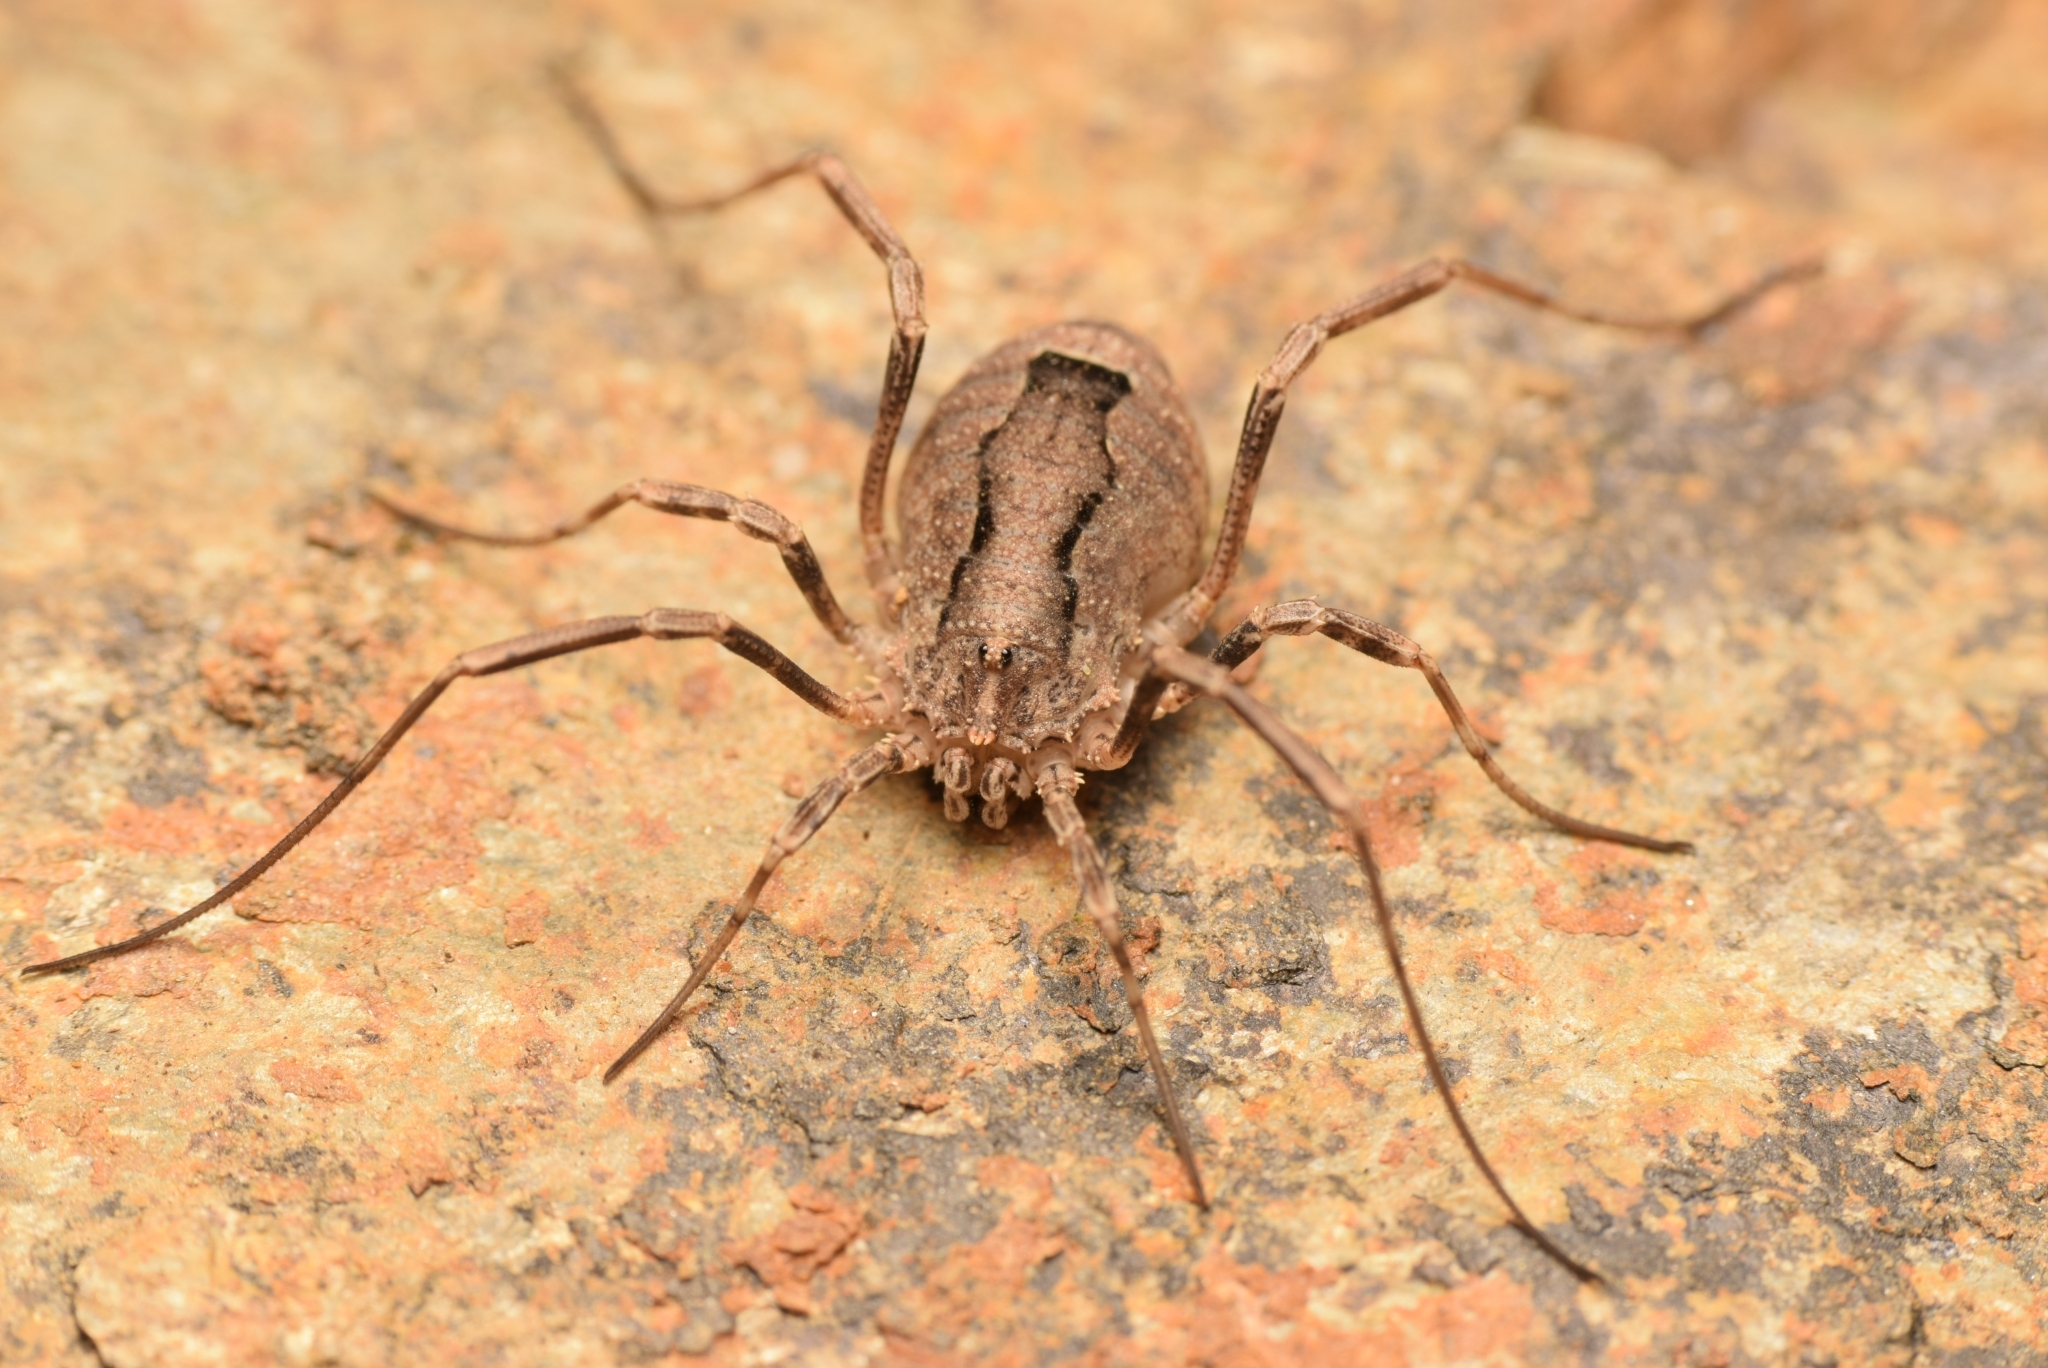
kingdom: Animalia
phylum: Arthropoda
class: Arachnida
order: Opiliones
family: Phalangiidae
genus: Odiellus
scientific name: Odiellus spinosus
